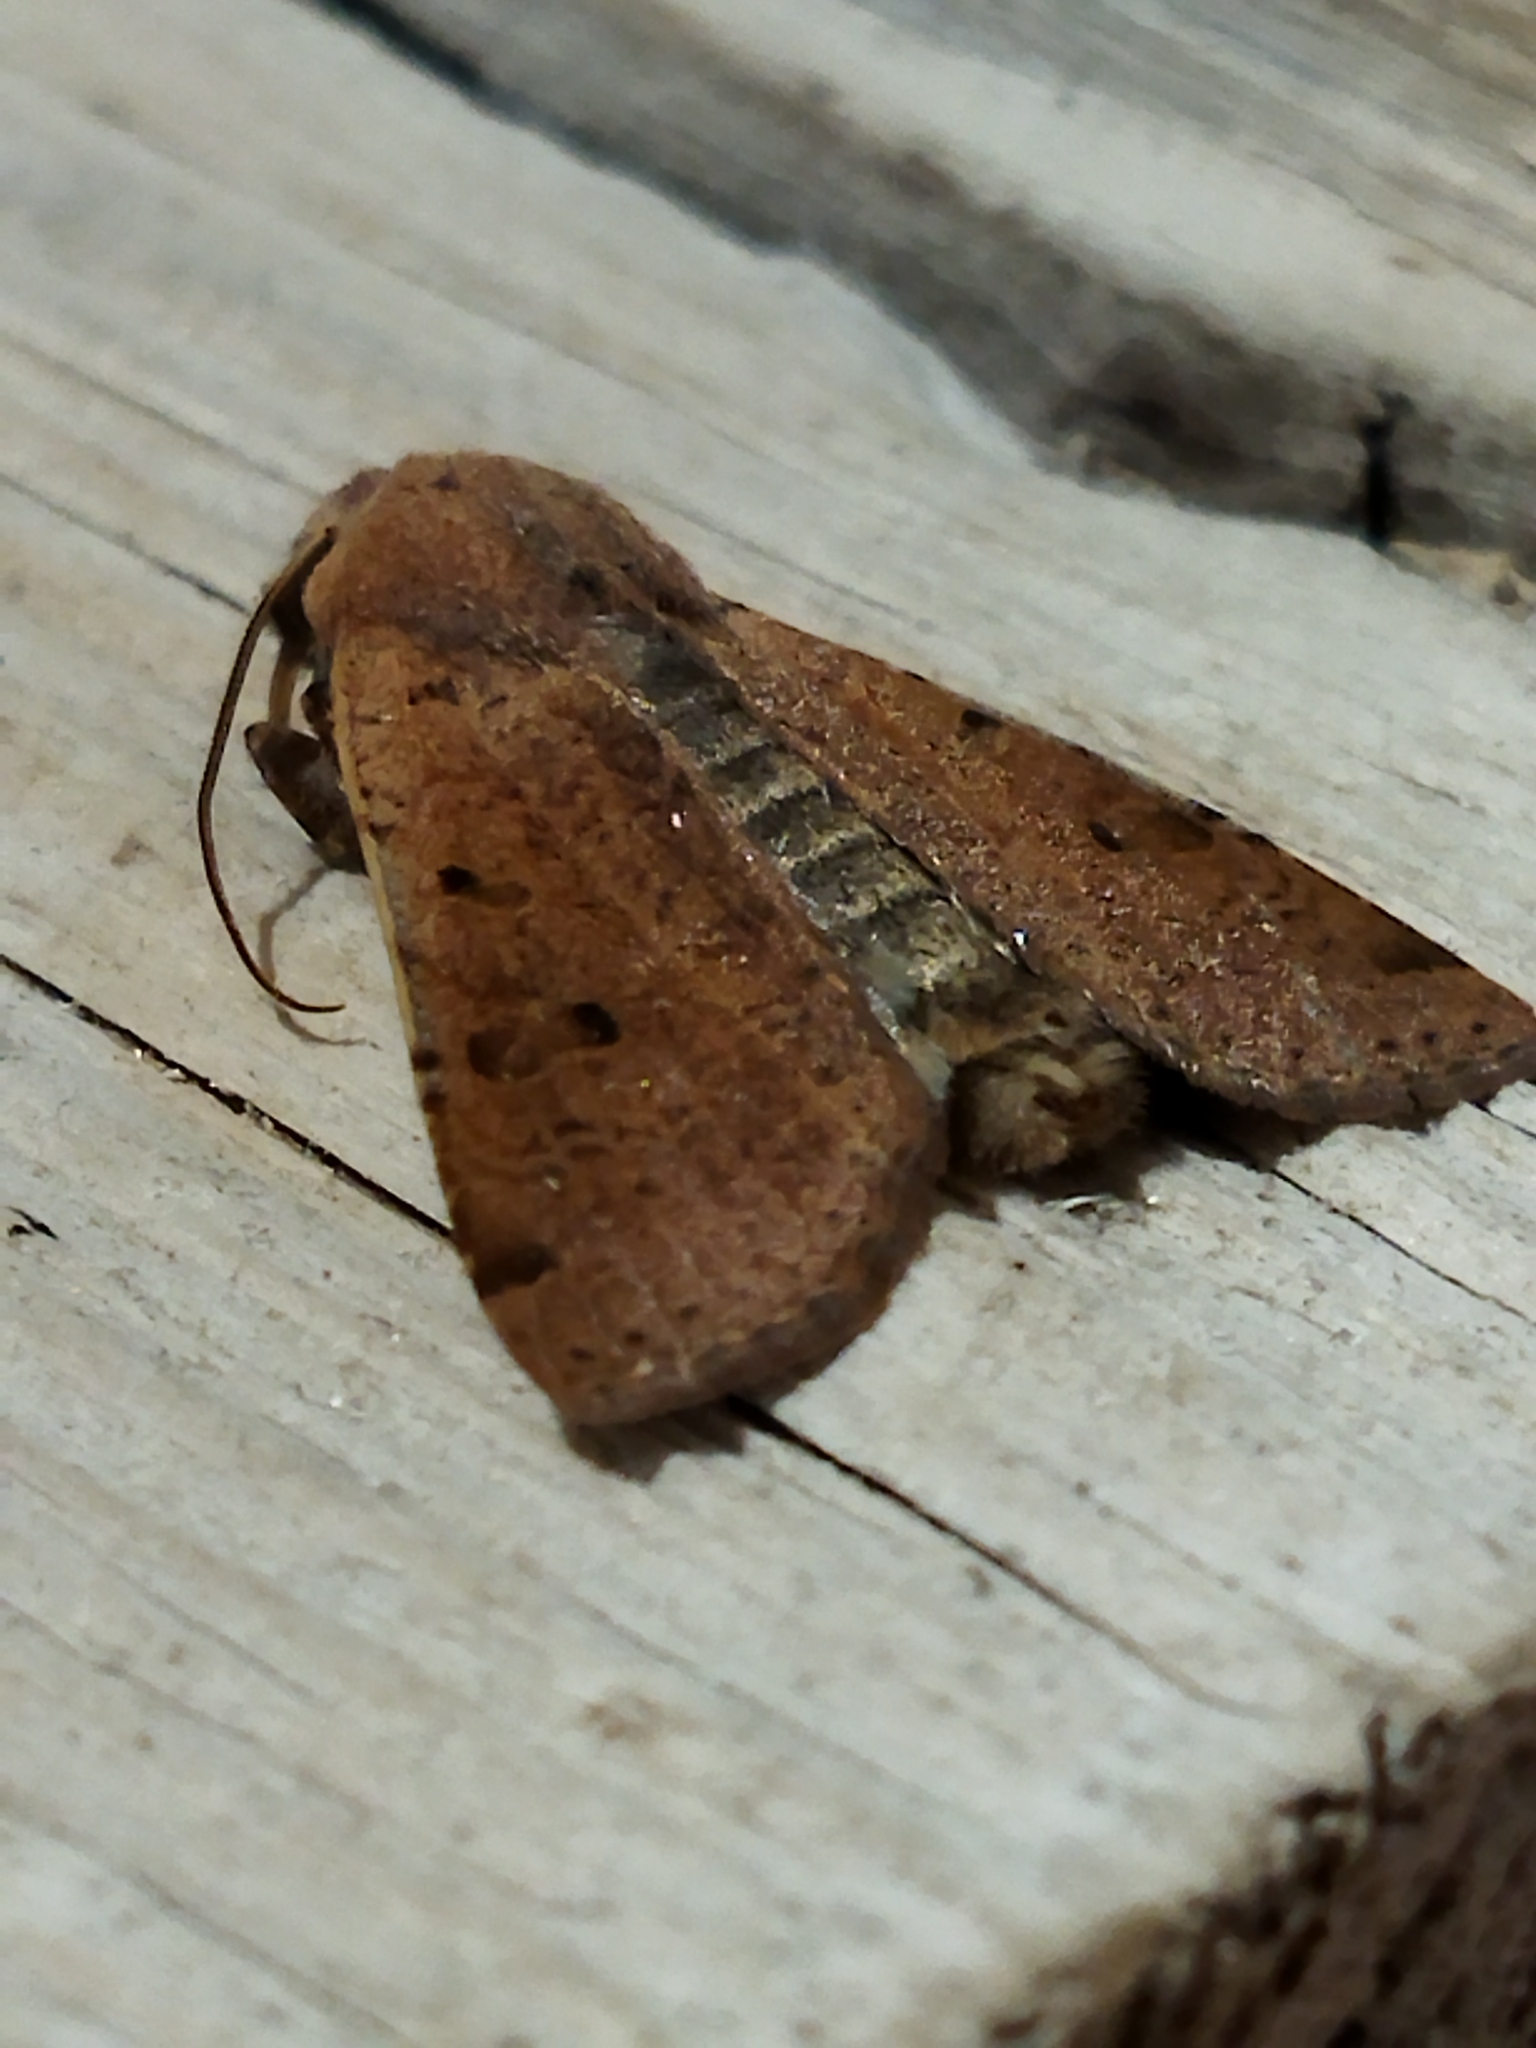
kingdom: Animalia
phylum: Arthropoda
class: Insecta
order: Lepidoptera
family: Noctuidae
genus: Agrochola
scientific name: Agrochola lychnidis
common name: Beaded chestnut
